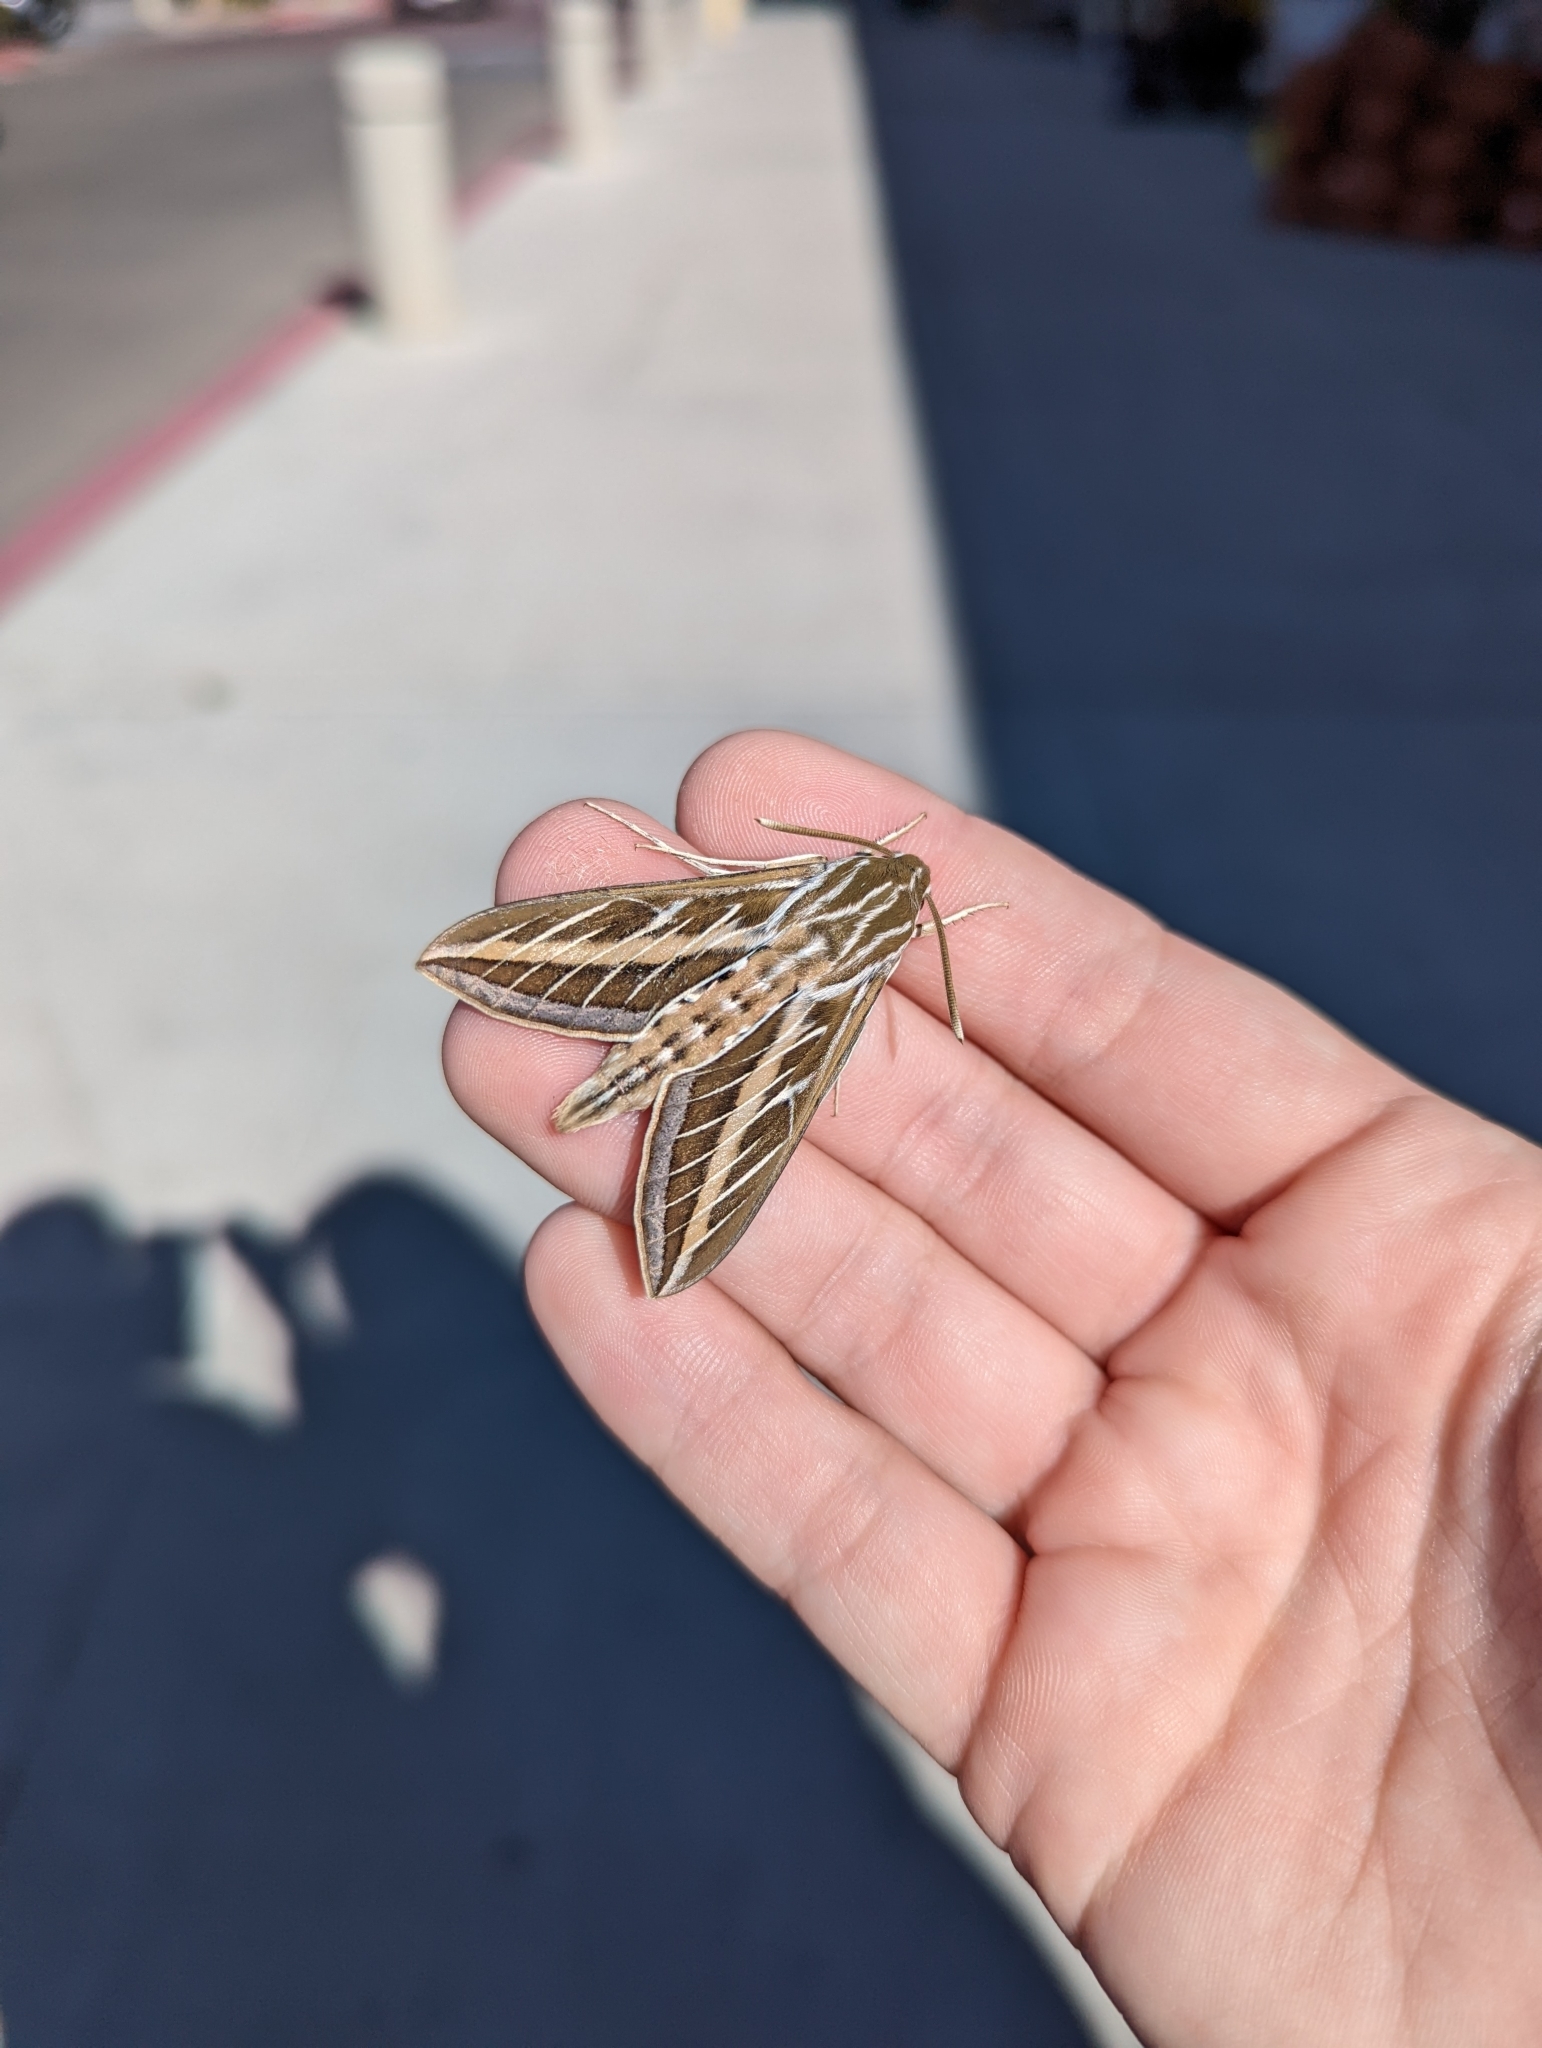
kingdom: Animalia
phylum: Arthropoda
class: Insecta
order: Lepidoptera
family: Sphingidae
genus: Hyles
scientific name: Hyles lineata
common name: White-lined sphinx
